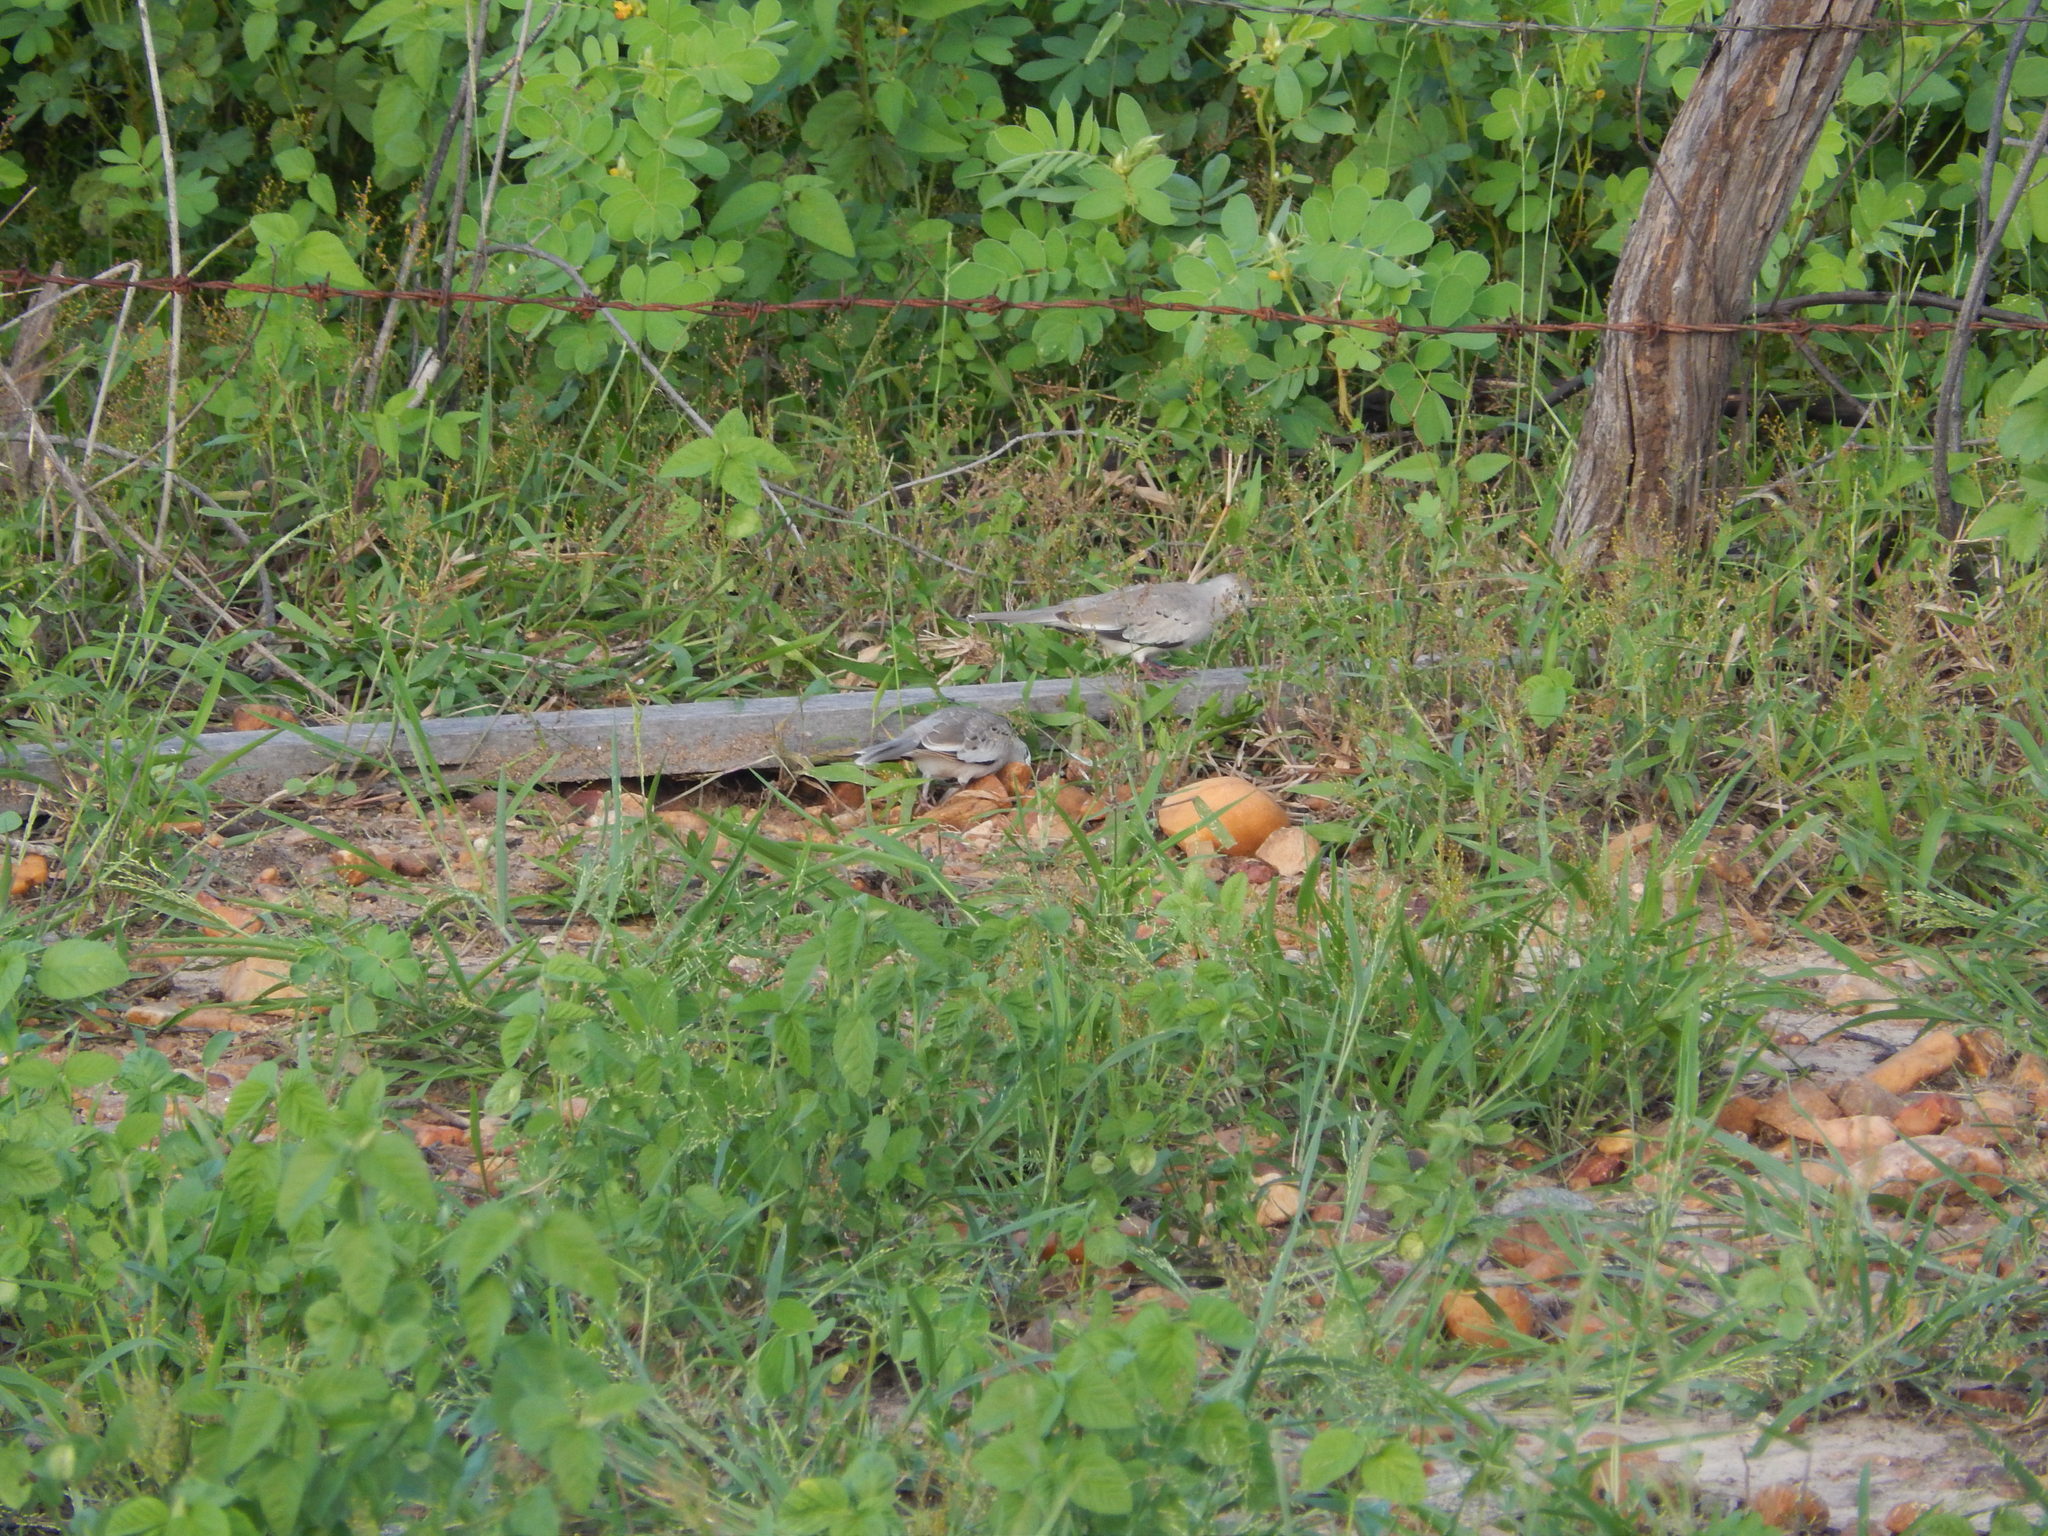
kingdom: Animalia
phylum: Chordata
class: Aves
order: Columbiformes
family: Columbidae
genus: Columbina
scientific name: Columbina picui
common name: Picui ground dove
